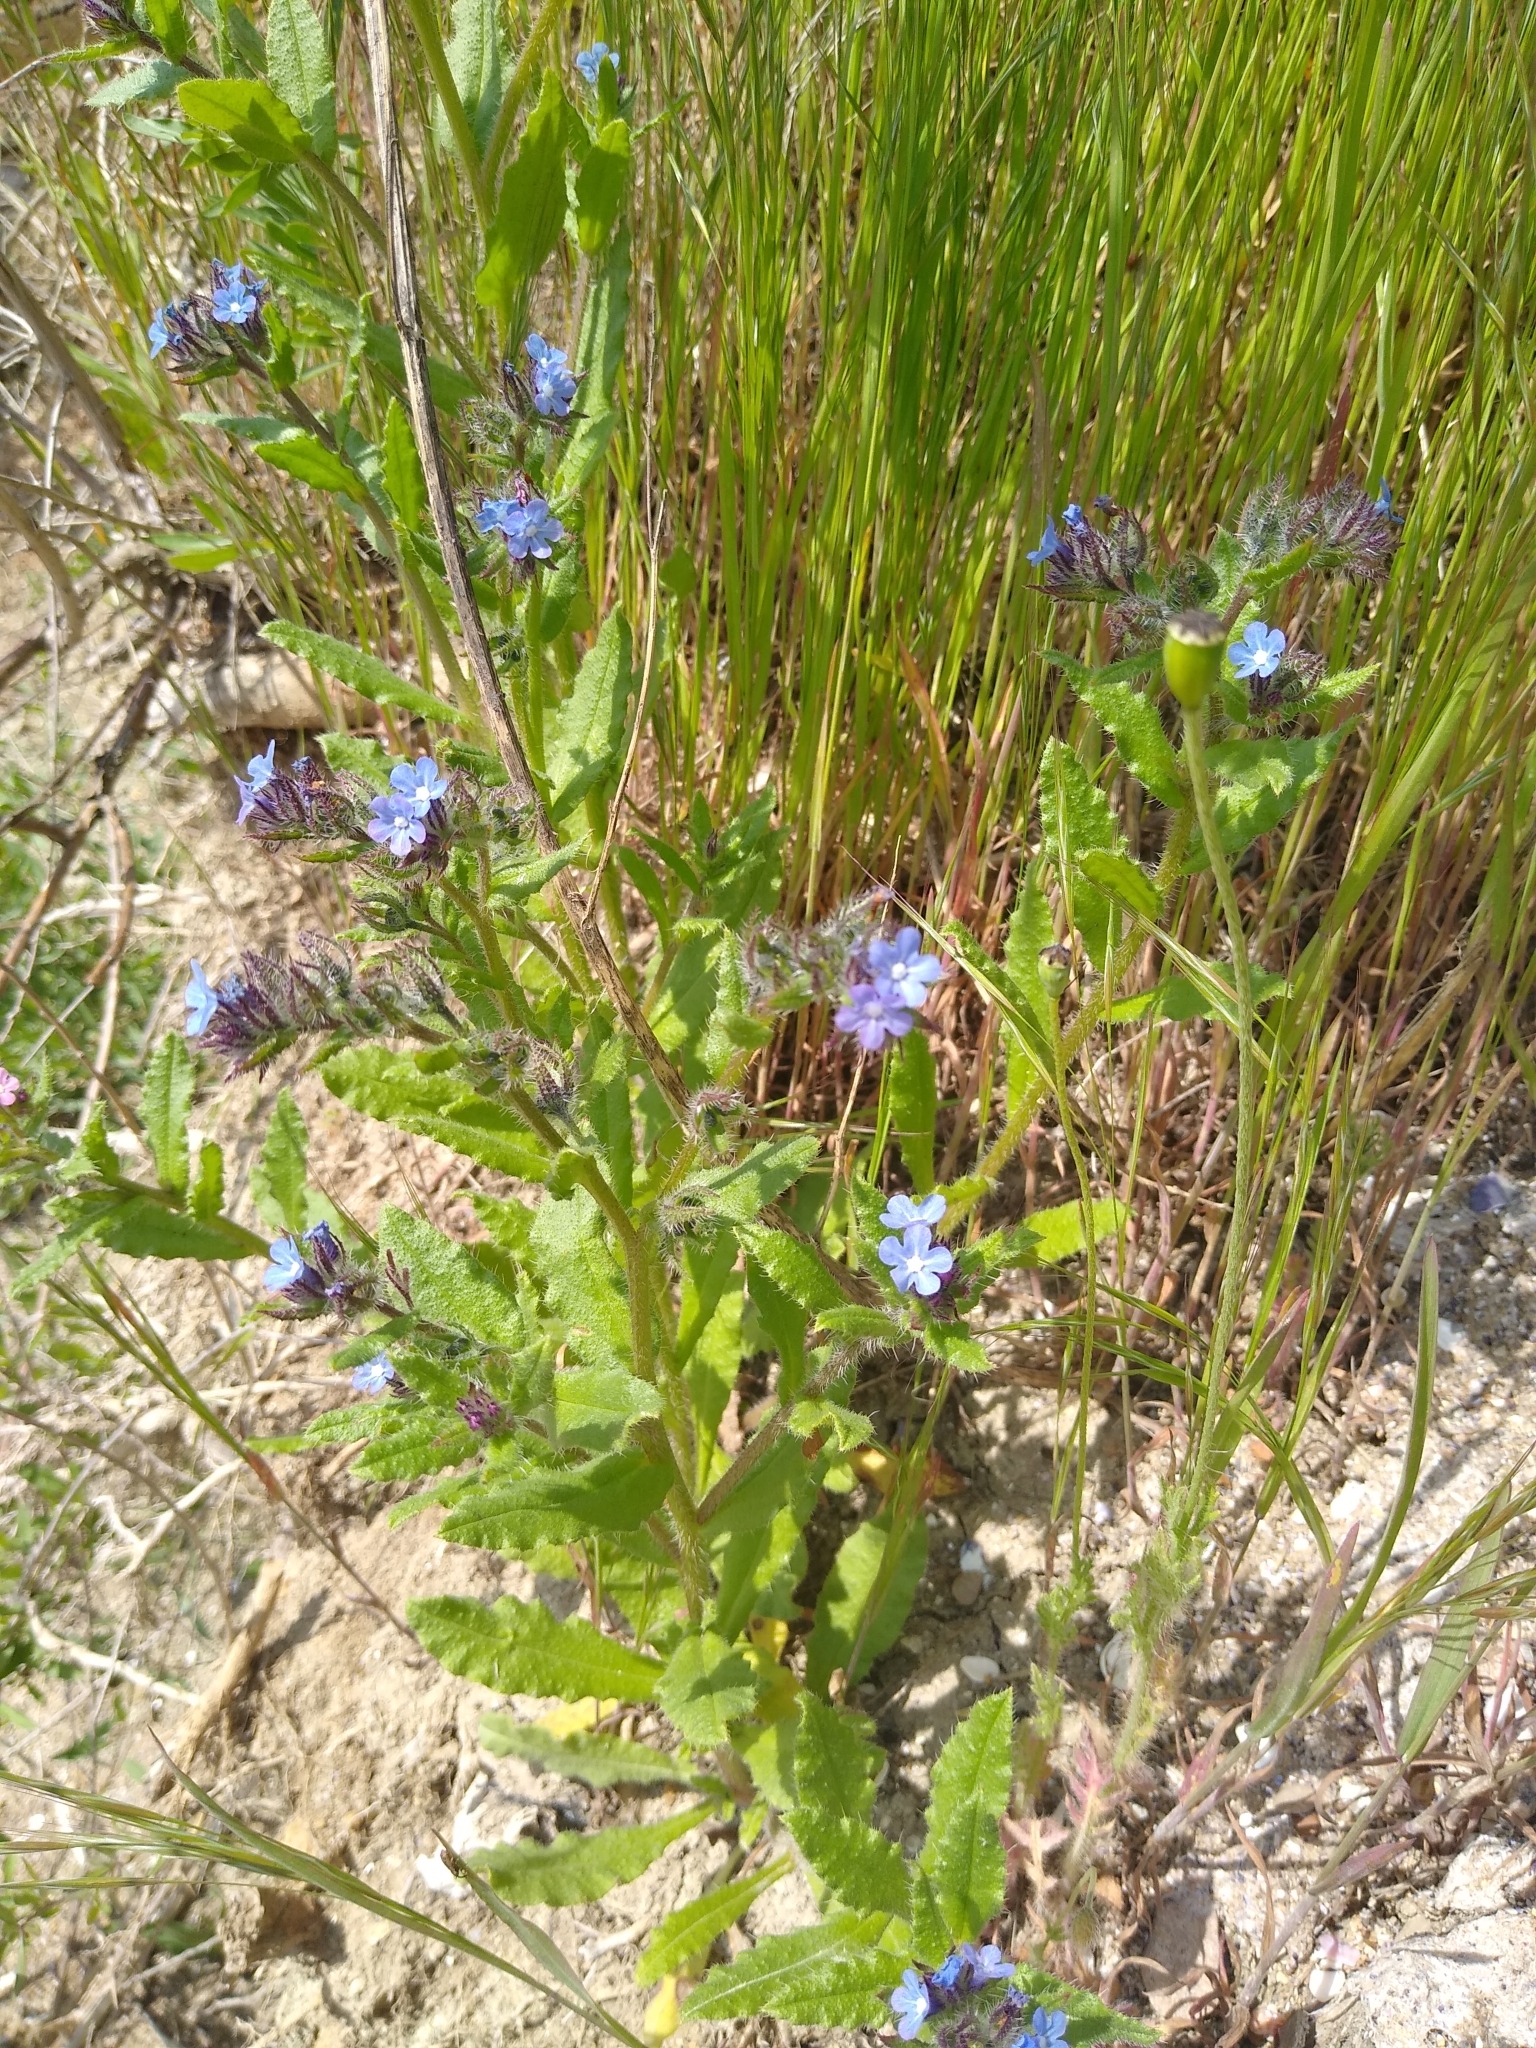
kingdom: Plantae
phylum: Tracheophyta
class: Magnoliopsida
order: Boraginales
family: Boraginaceae
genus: Lycopsis
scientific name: Lycopsis arvensis
